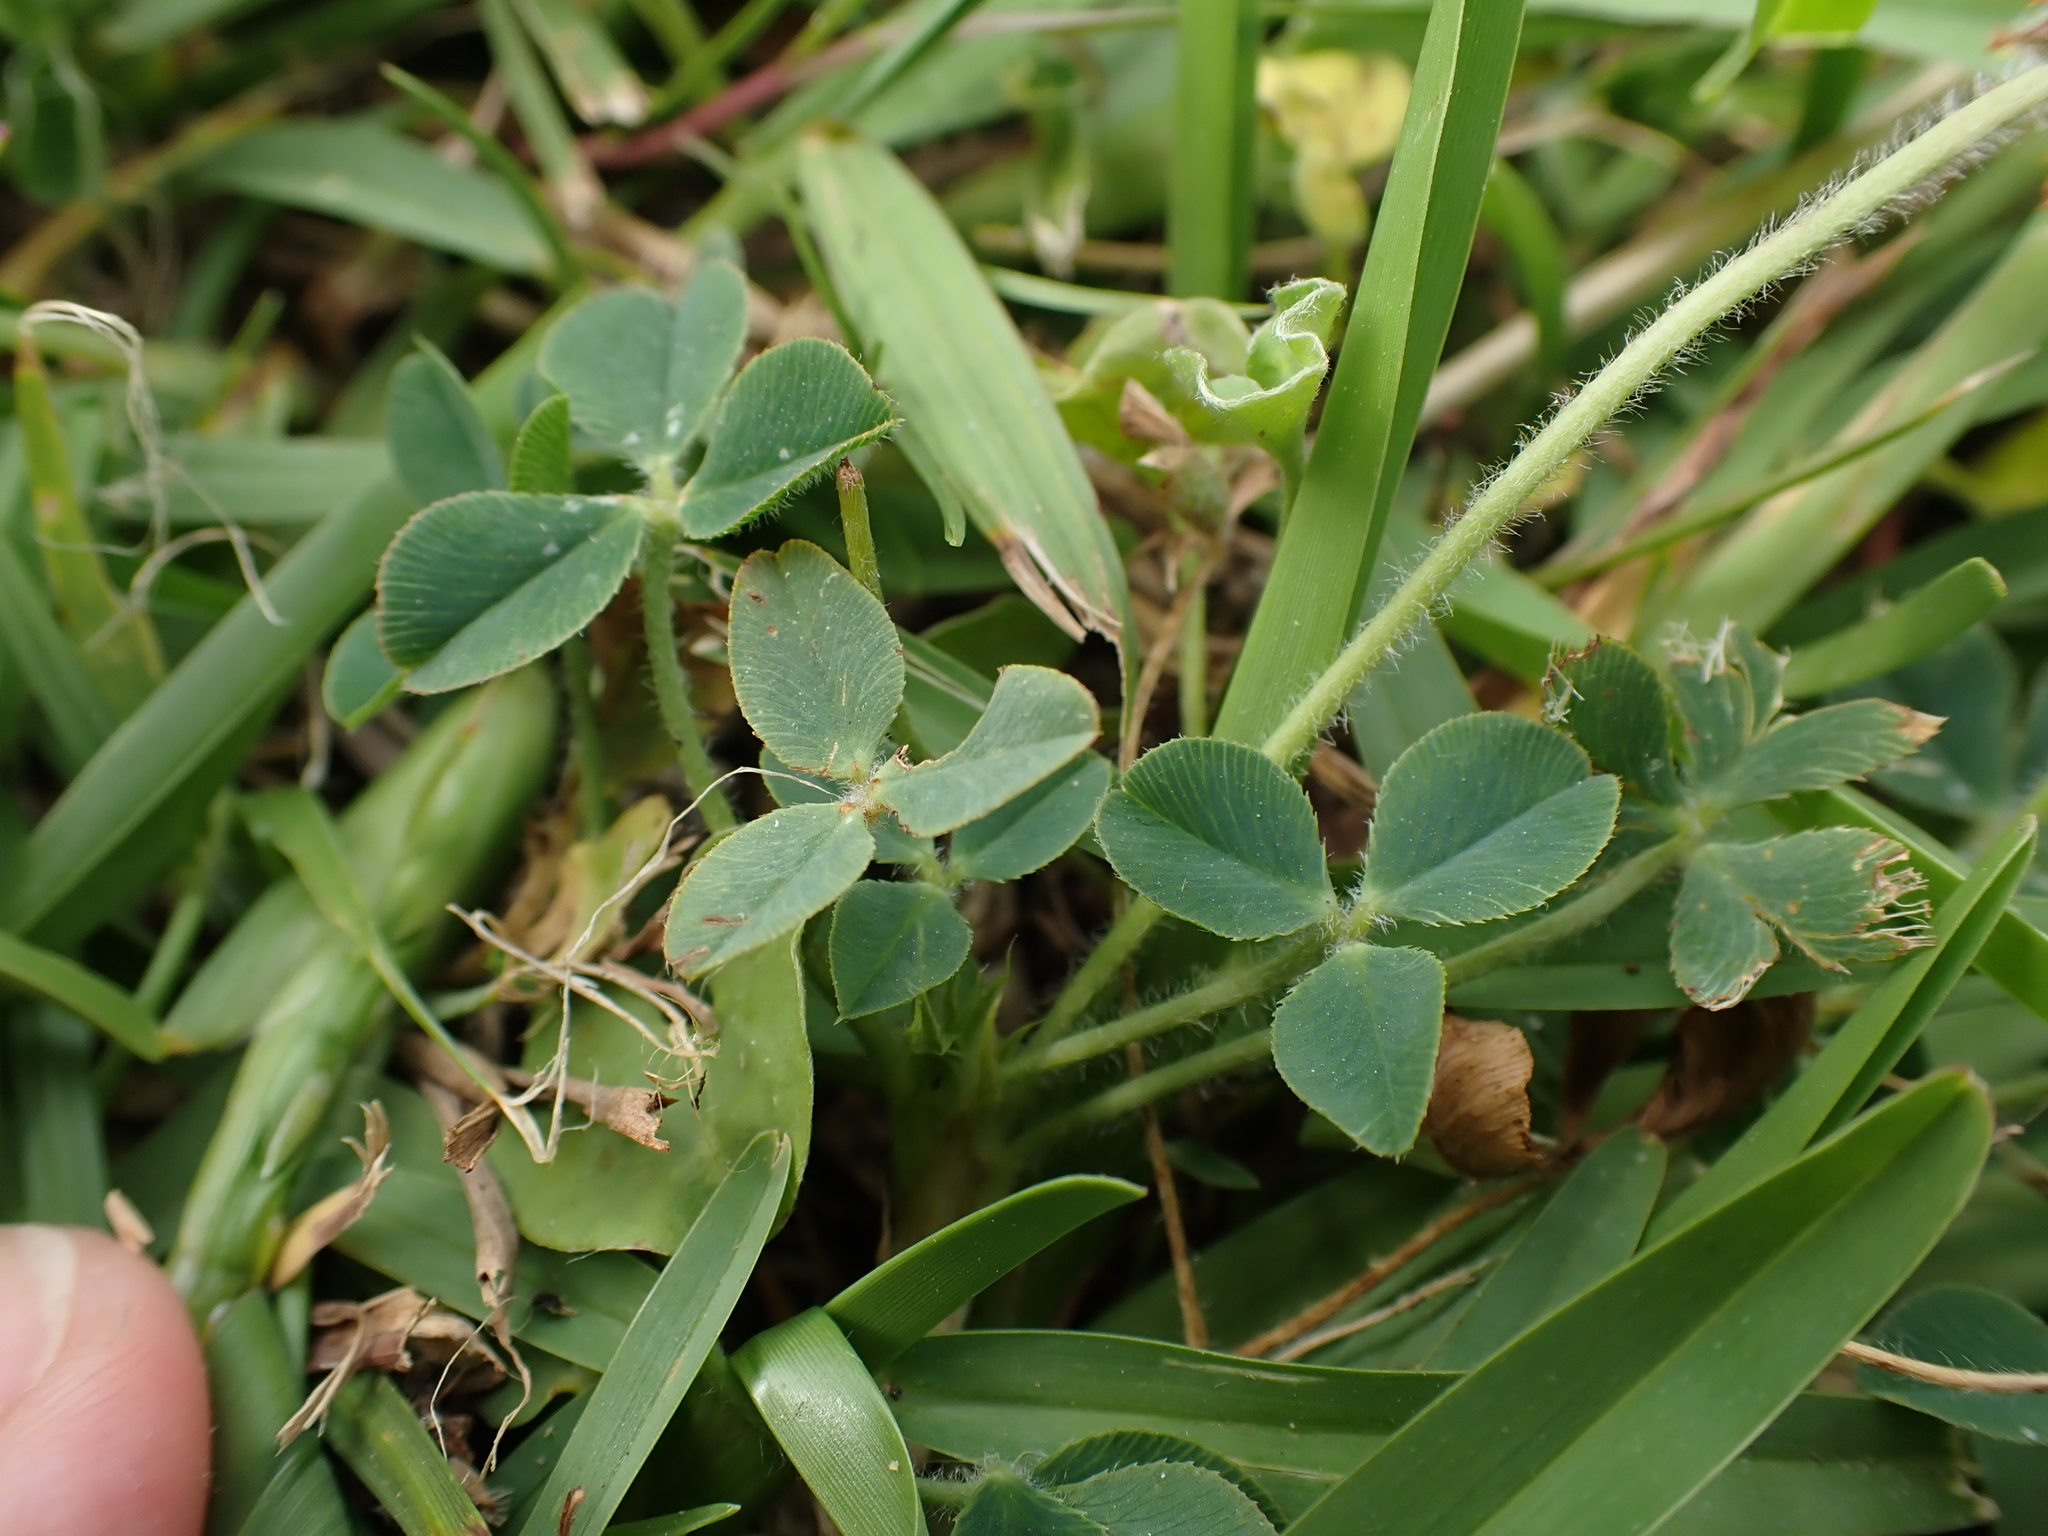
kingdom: Plantae
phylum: Tracheophyta
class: Magnoliopsida
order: Fabales
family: Fabaceae
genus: Trifolium
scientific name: Trifolium fragiferum
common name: Strawberry clover
